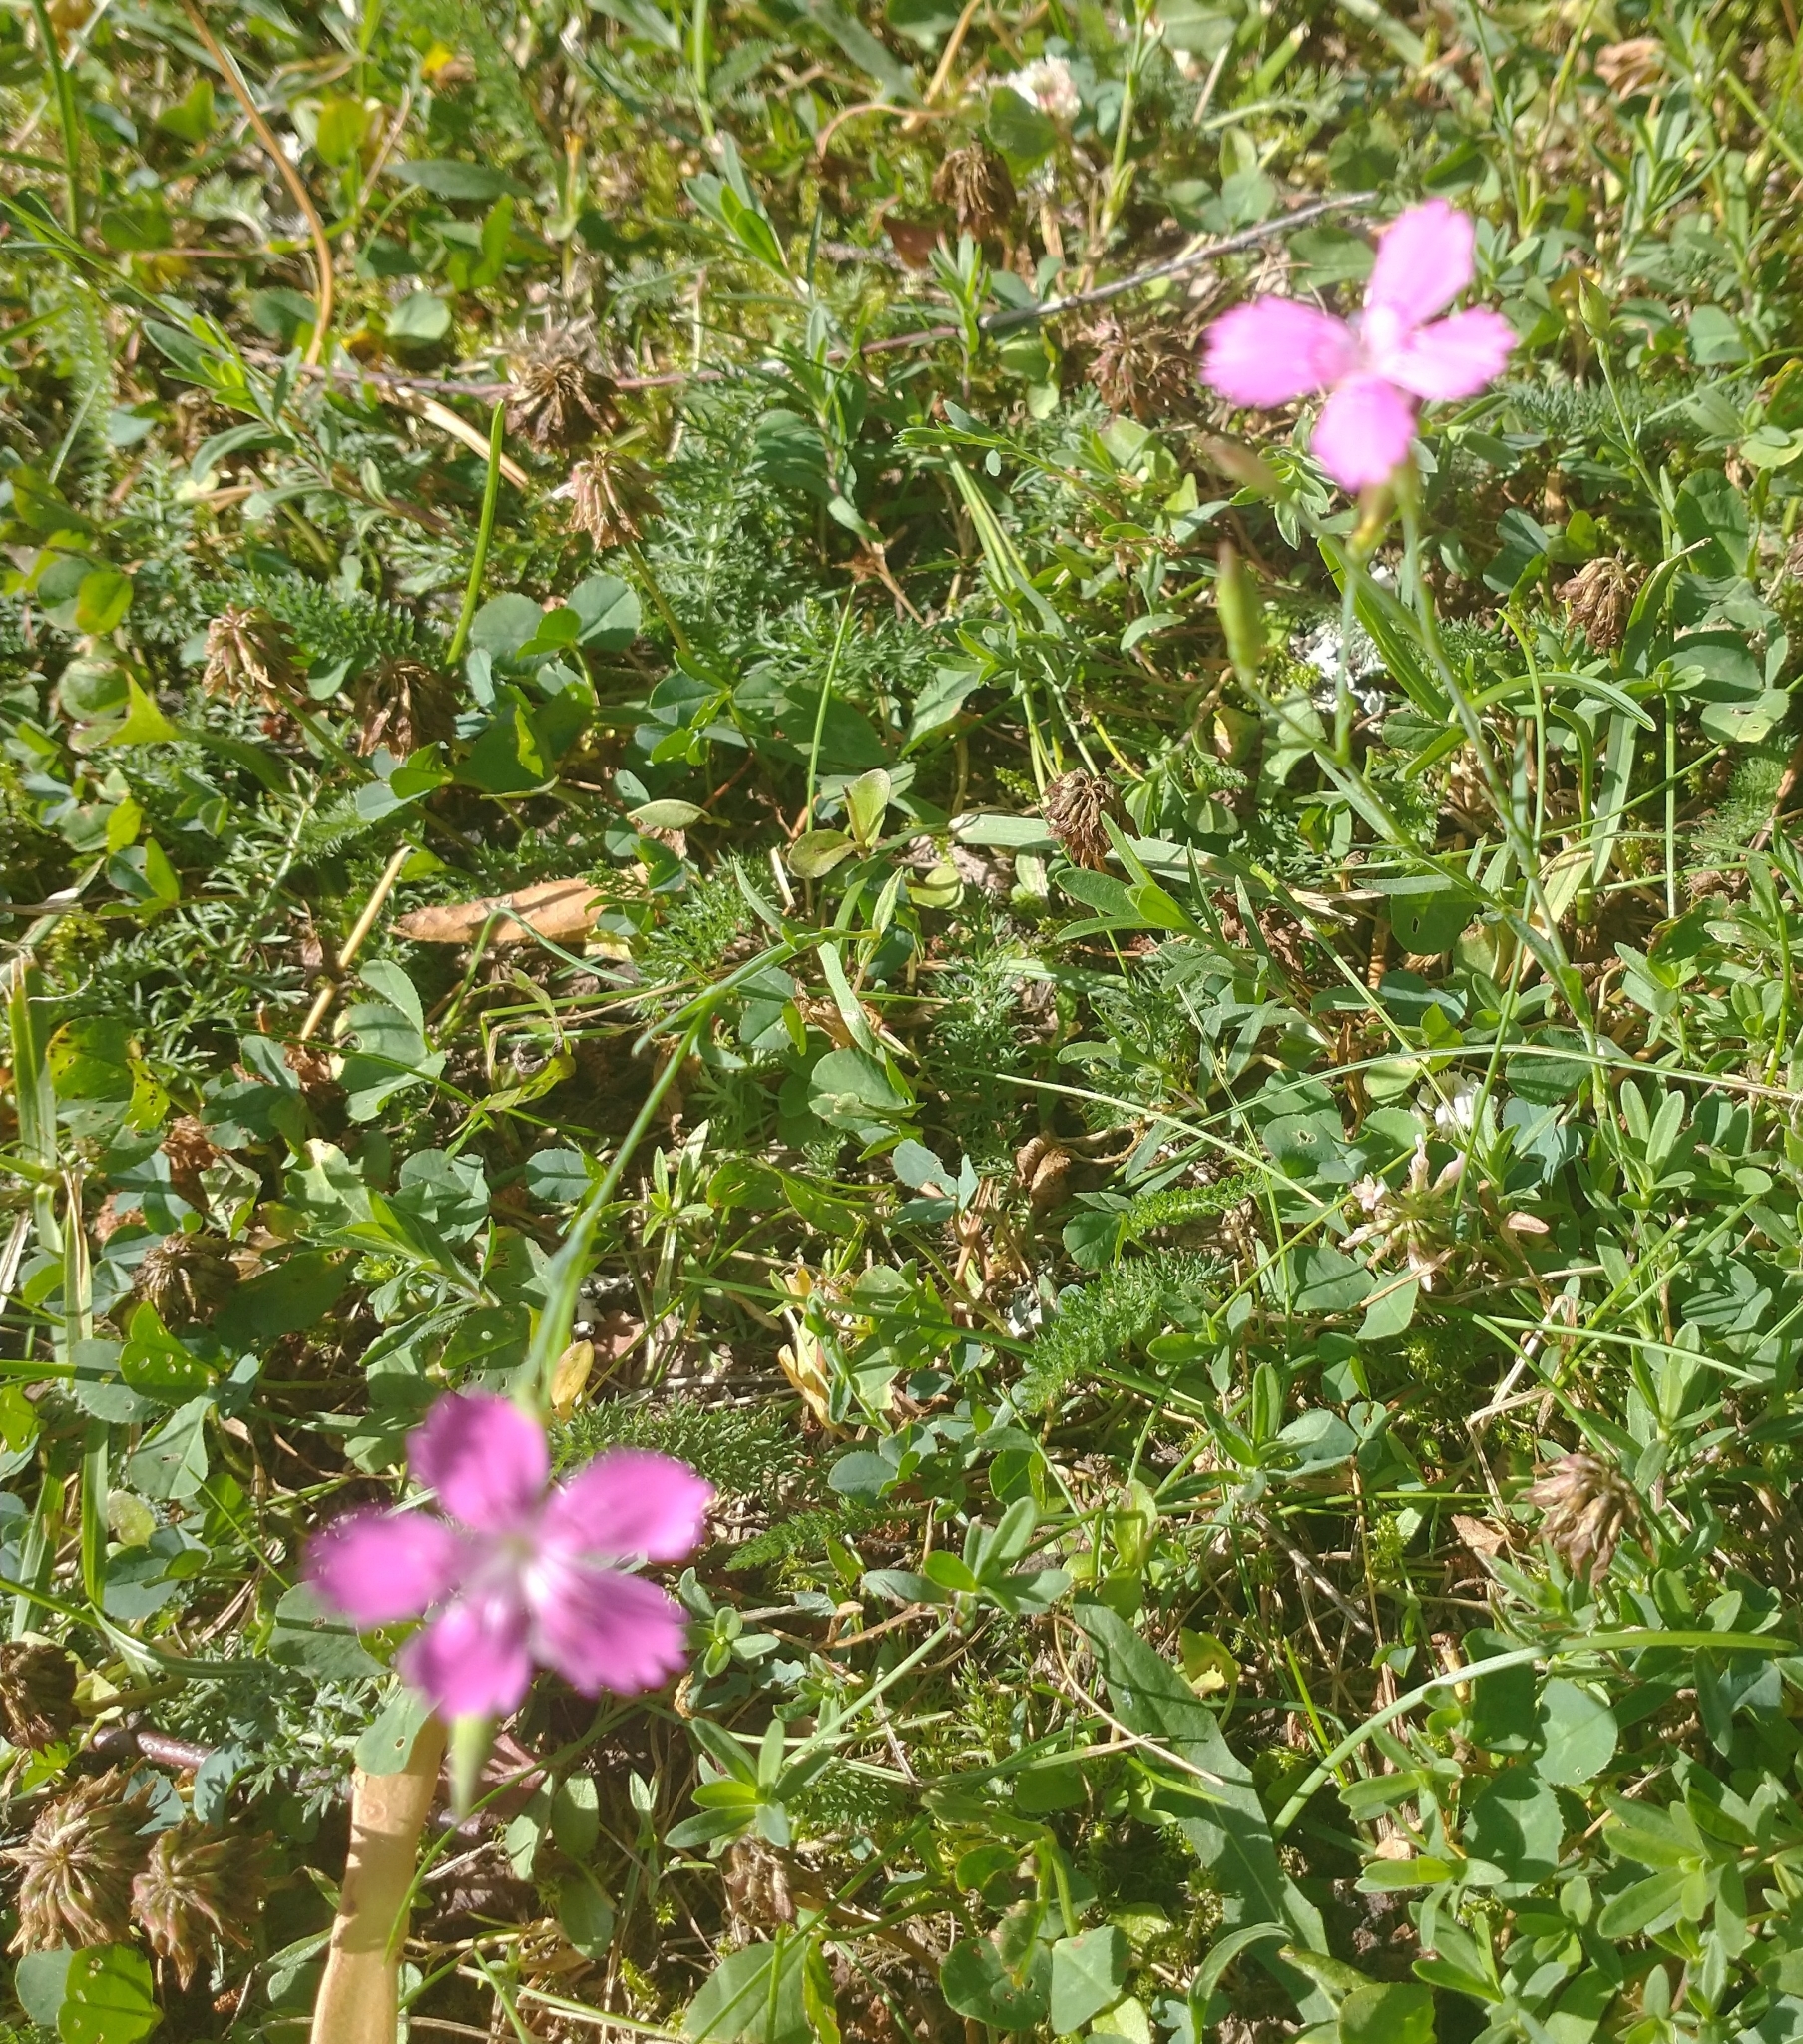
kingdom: Plantae
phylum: Tracheophyta
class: Magnoliopsida
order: Caryophyllales
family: Caryophyllaceae
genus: Dianthus
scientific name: Dianthus deltoides
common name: Maiden pink
